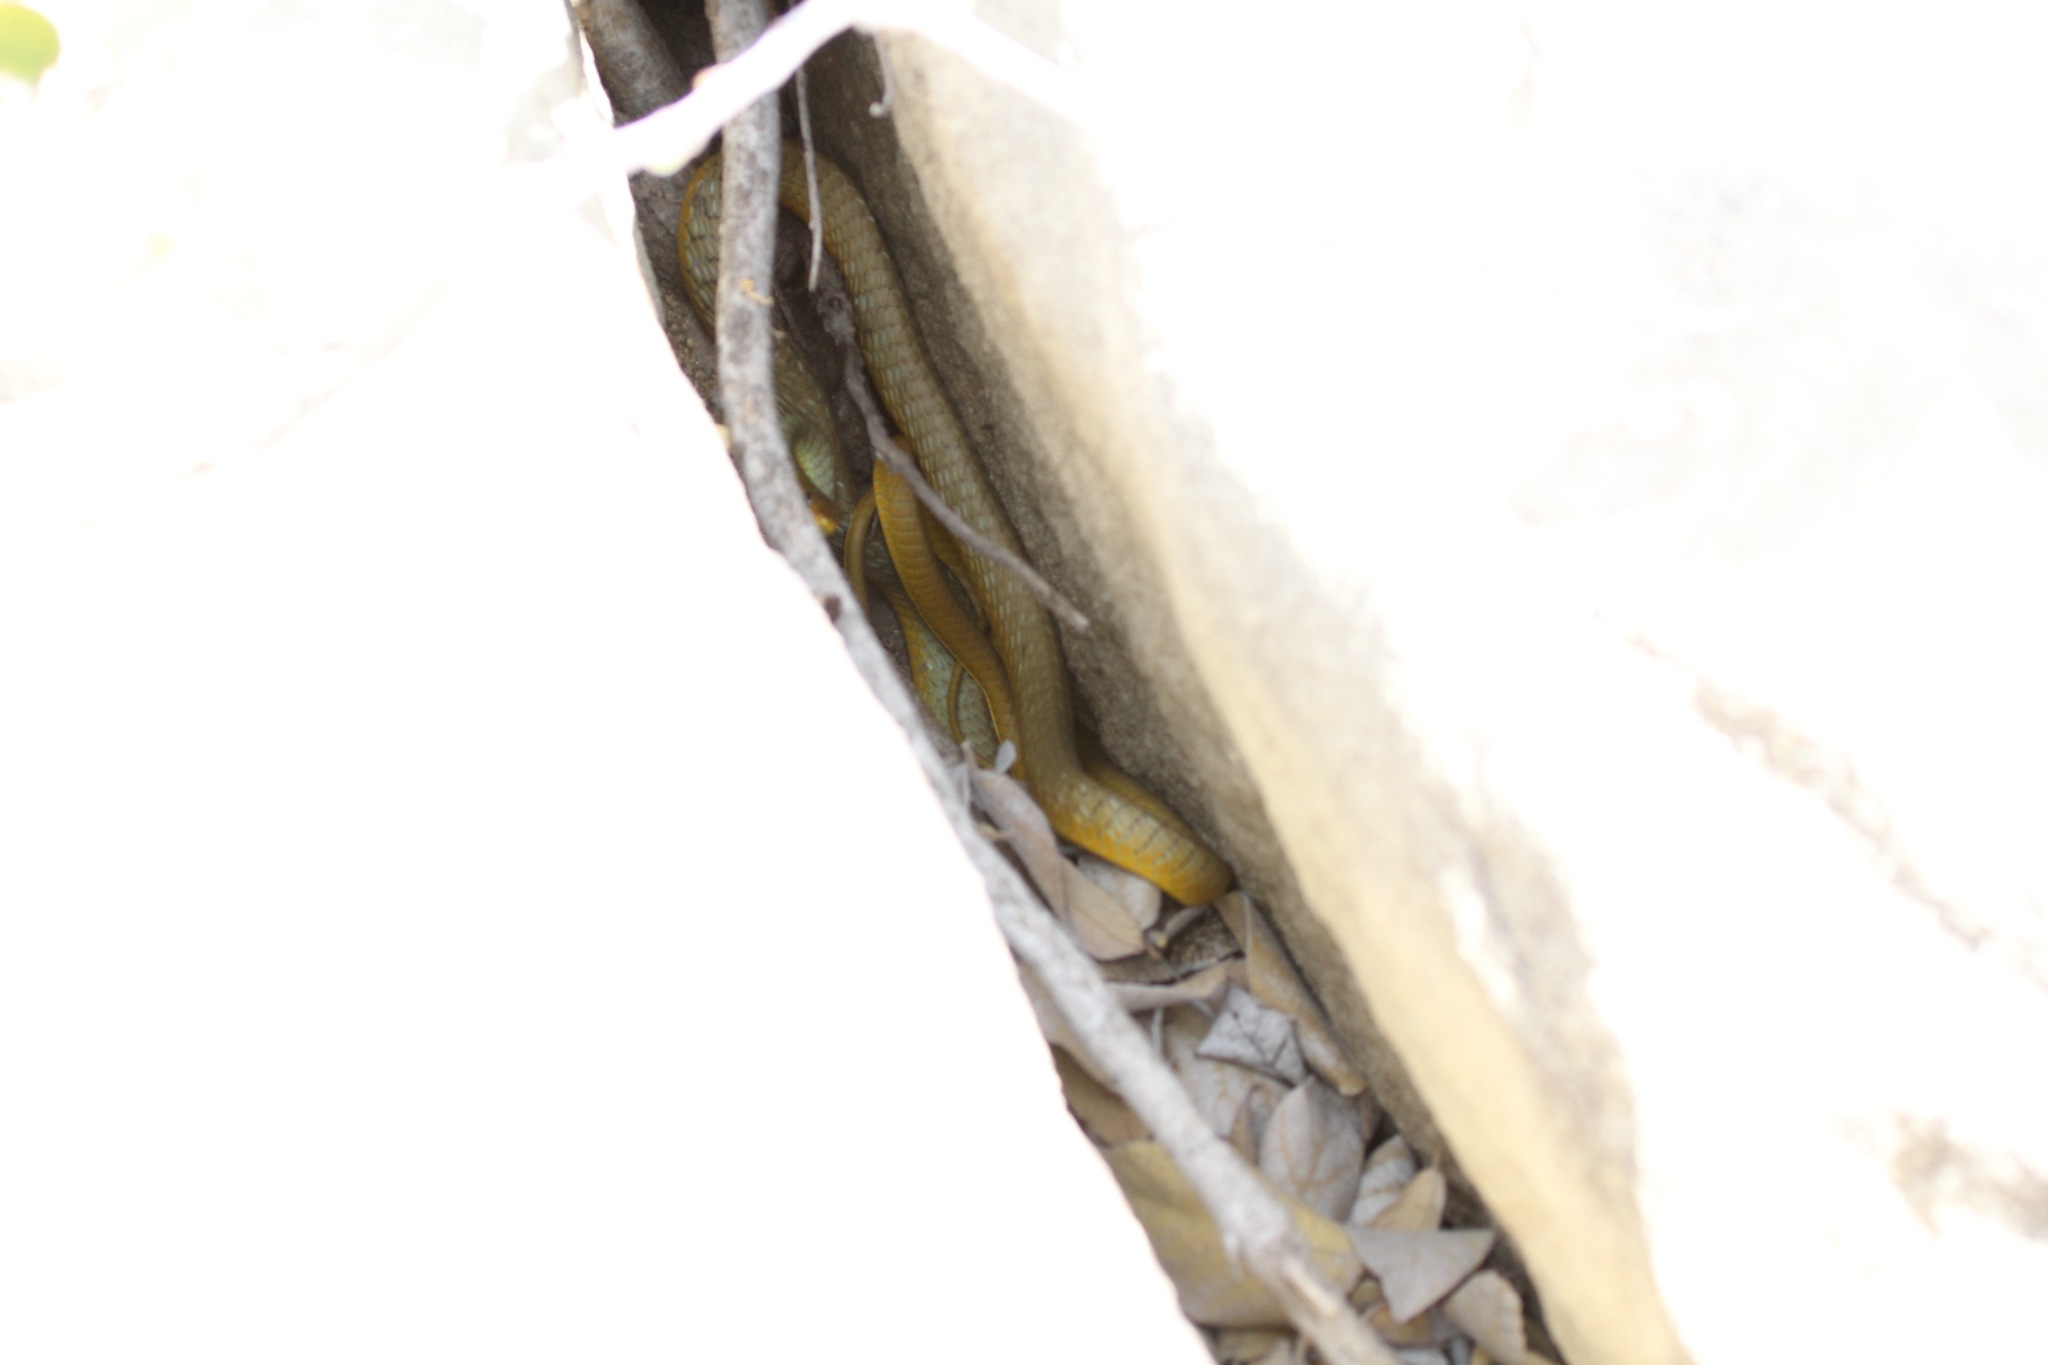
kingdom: Animalia
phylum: Chordata
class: Squamata
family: Colubridae
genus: Dendrelaphis
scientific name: Dendrelaphis punctulatus
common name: Common tree snake
